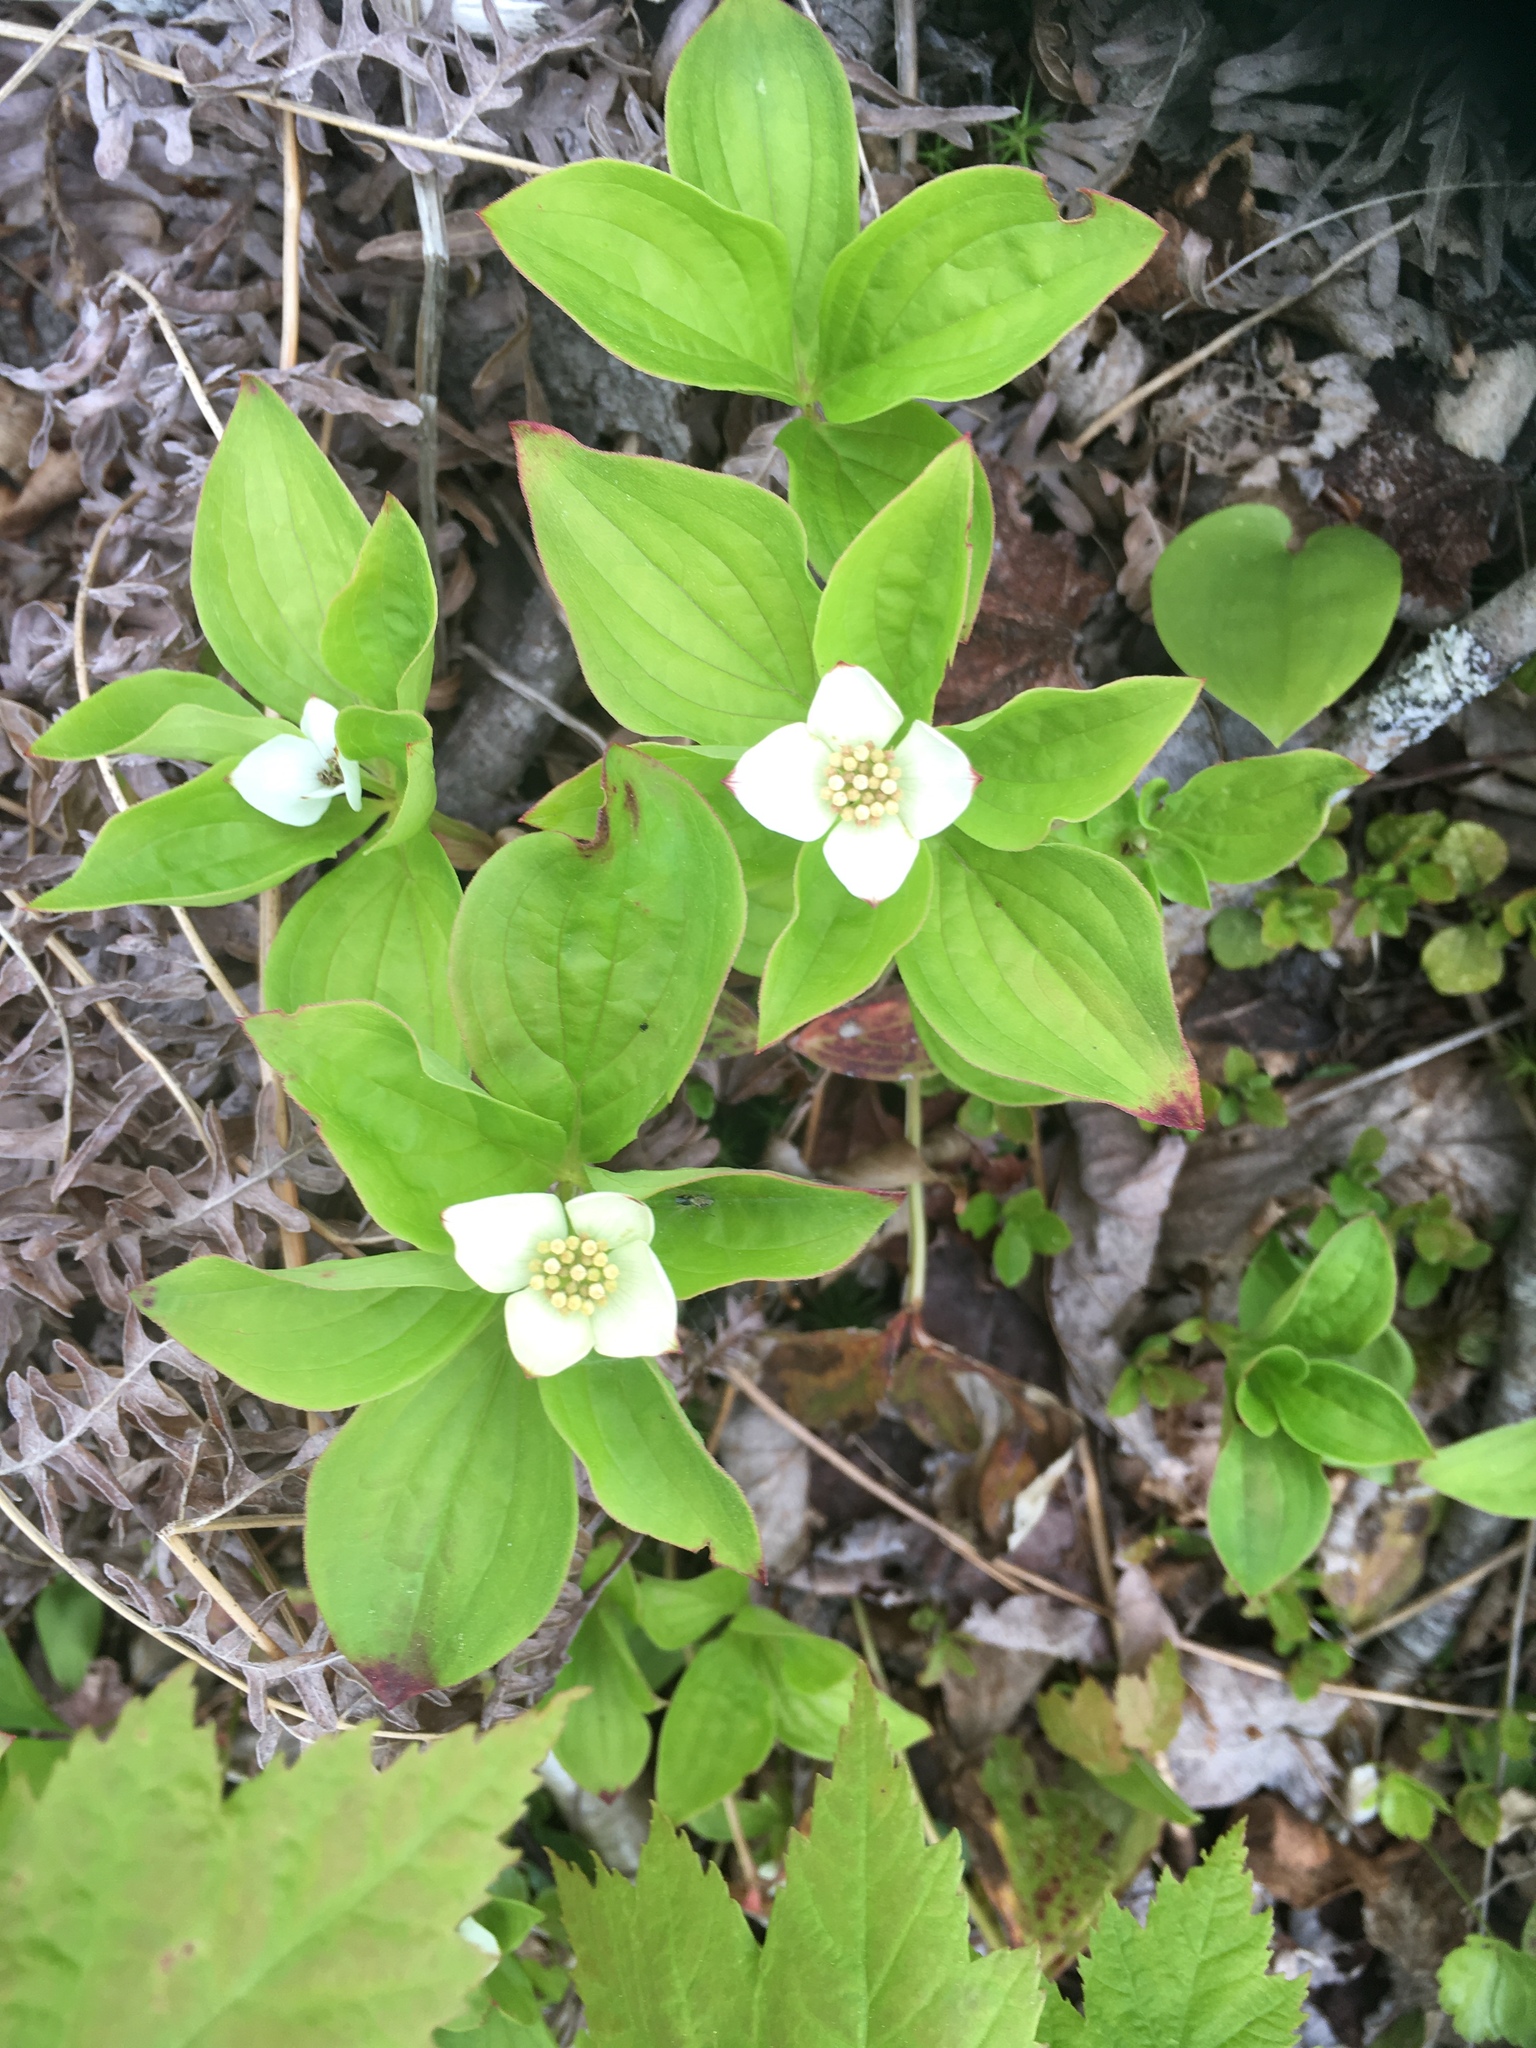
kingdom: Plantae
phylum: Tracheophyta
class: Magnoliopsida
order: Cornales
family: Cornaceae
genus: Cornus
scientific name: Cornus canadensis
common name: Creeping dogwood
